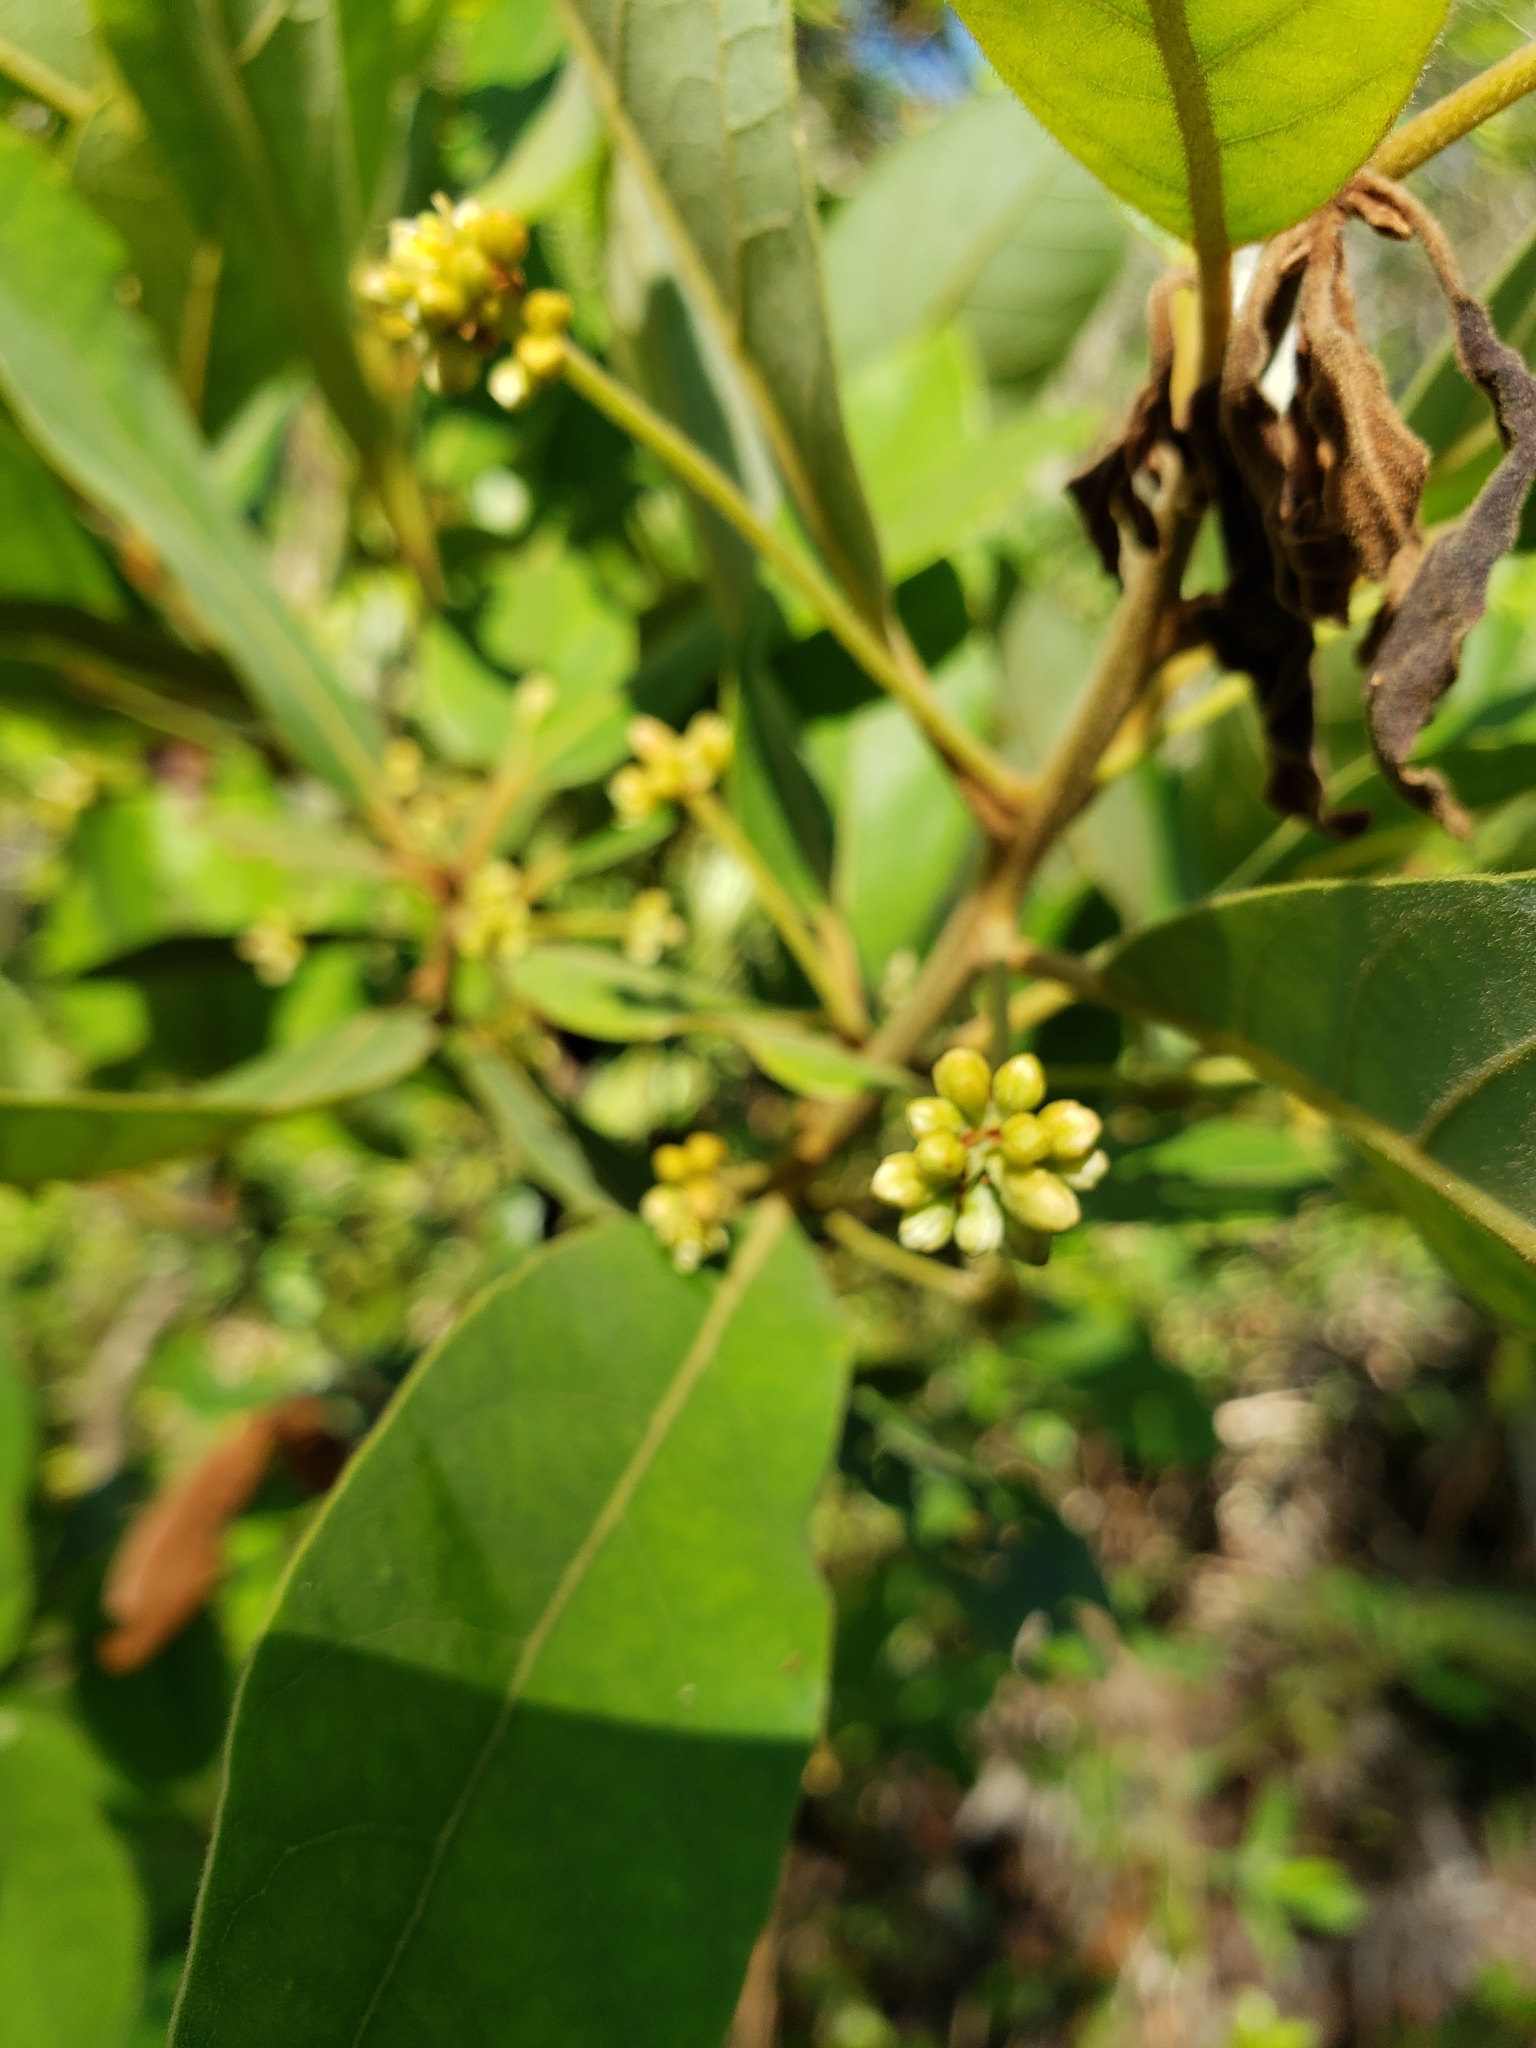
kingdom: Plantae
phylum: Tracheophyta
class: Magnoliopsida
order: Laurales
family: Lauraceae
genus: Persea
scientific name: Persea palustris
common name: Swampbay
